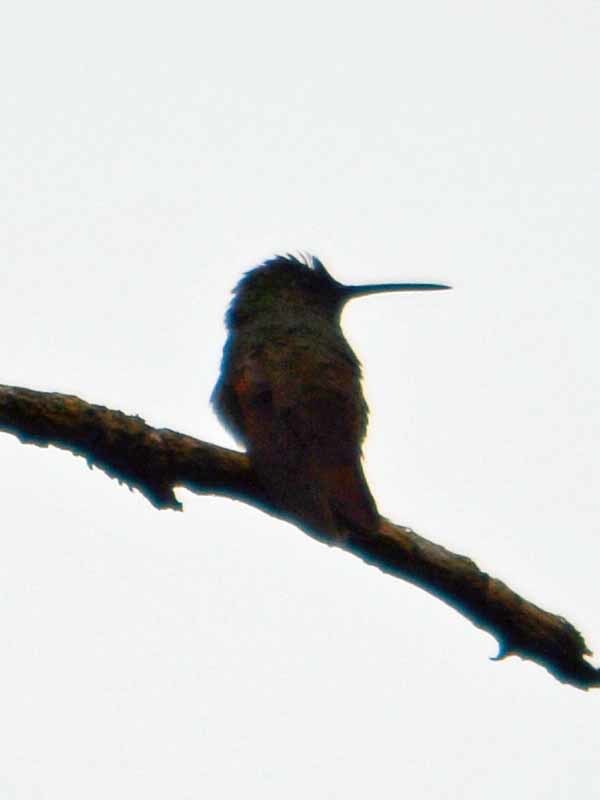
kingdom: Animalia
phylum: Chordata
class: Aves
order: Apodiformes
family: Trochilidae
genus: Saucerottia
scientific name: Saucerottia beryllina
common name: Berylline hummingbird
